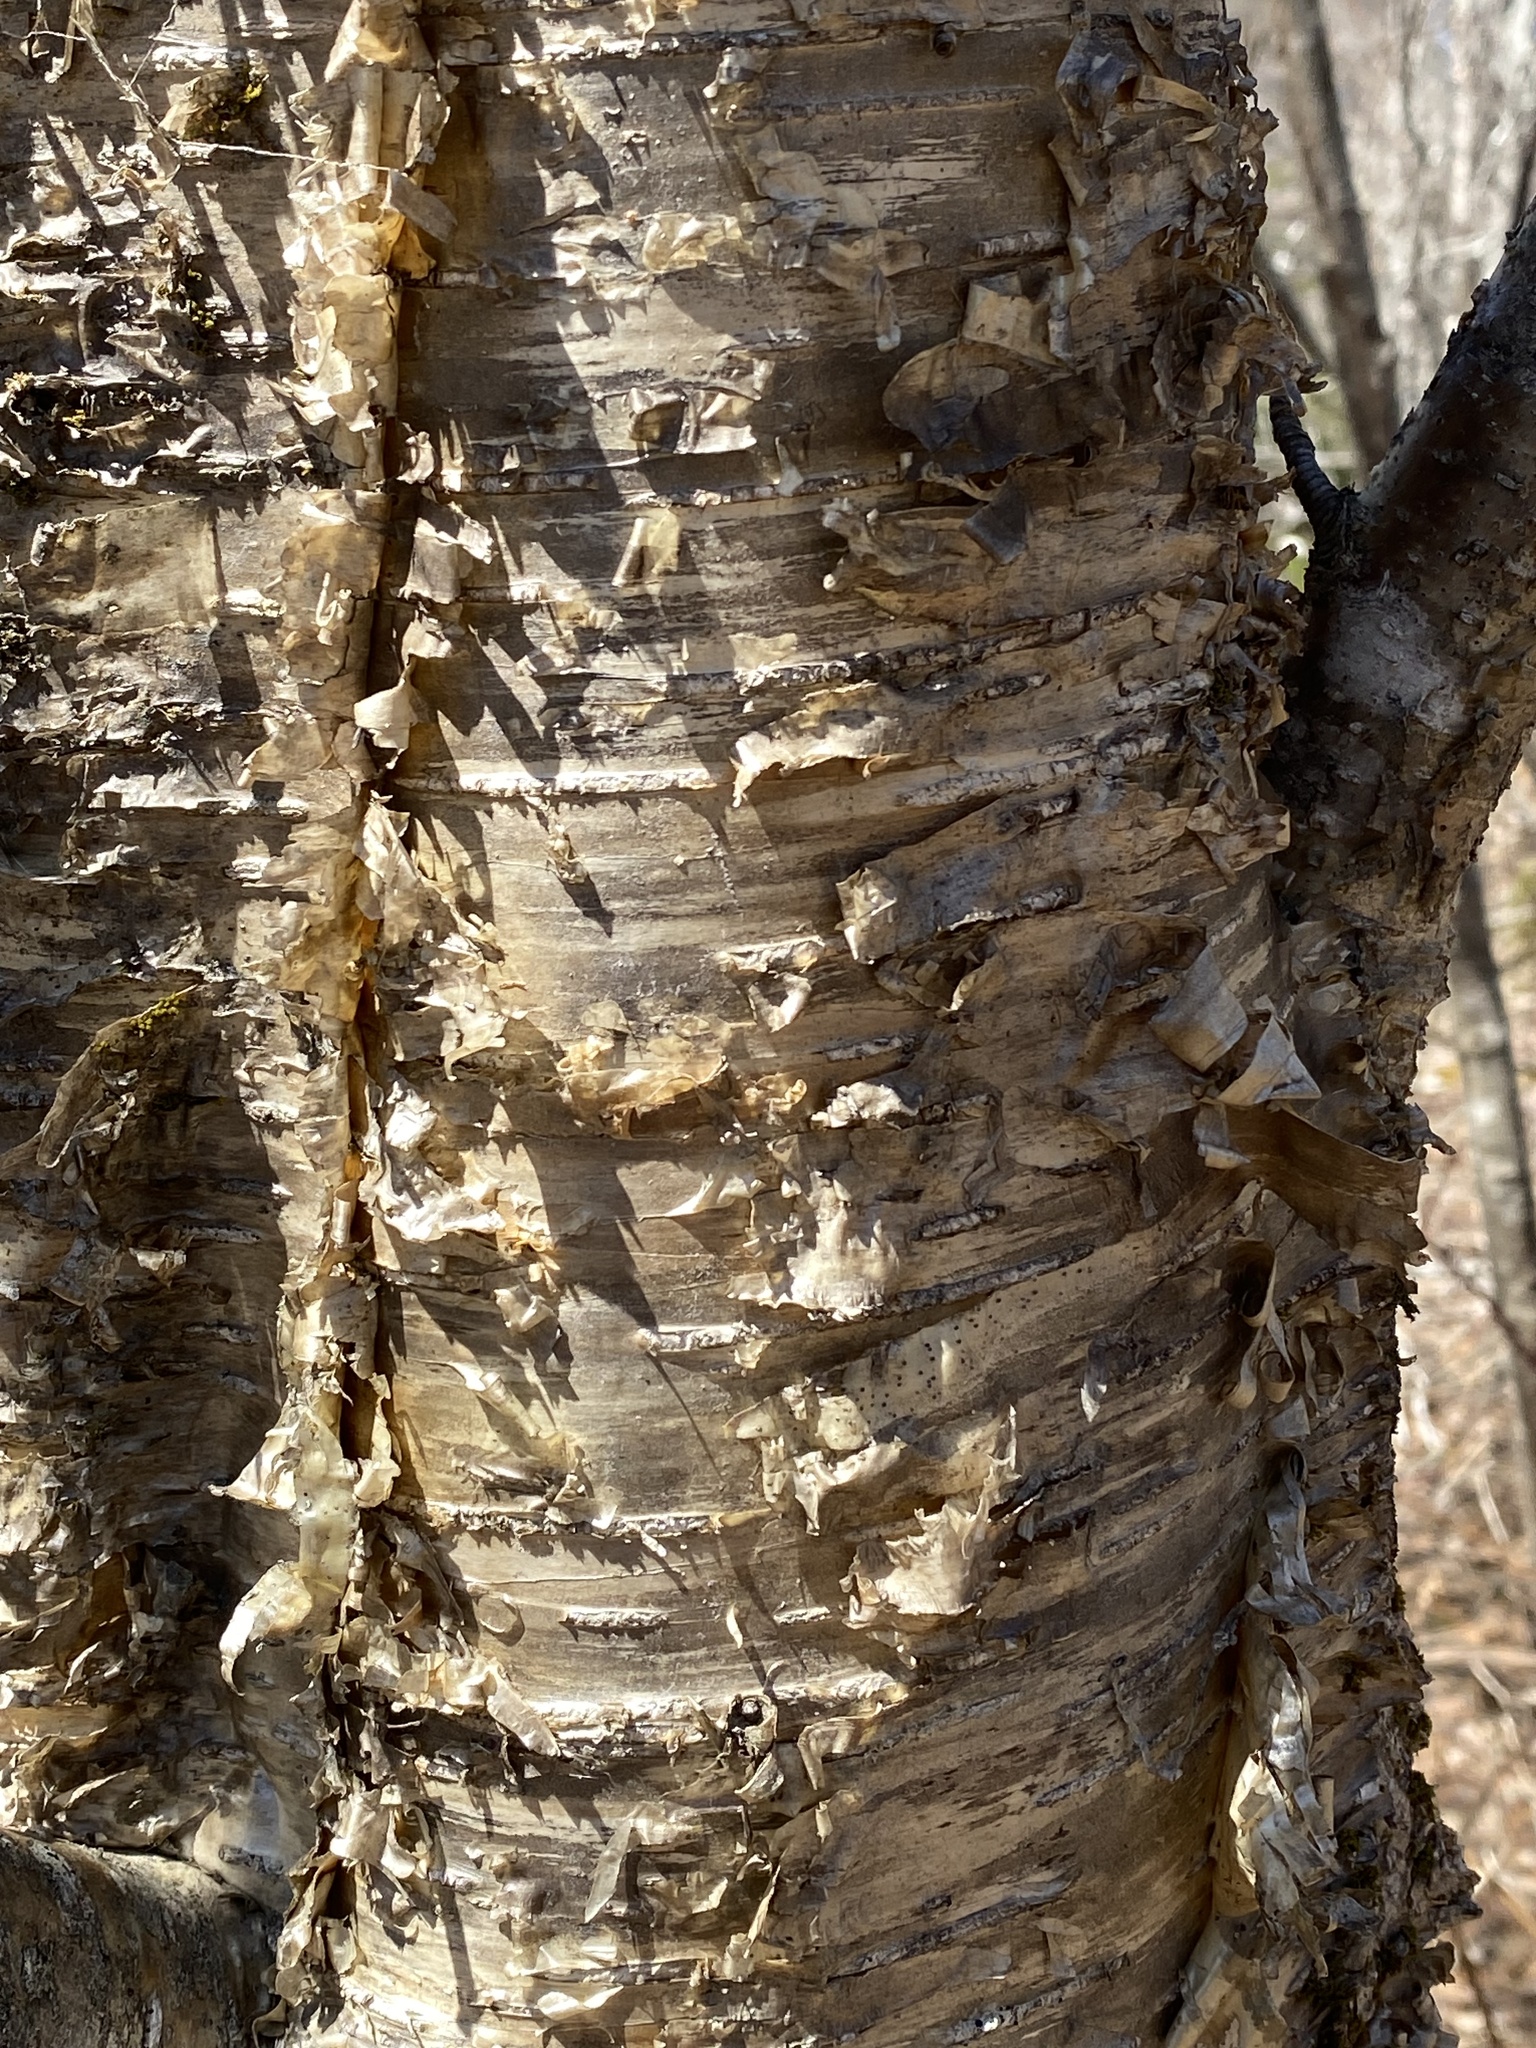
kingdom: Plantae
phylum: Tracheophyta
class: Magnoliopsida
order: Fagales
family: Betulaceae
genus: Betula
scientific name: Betula alleghaniensis
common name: Yellow birch
